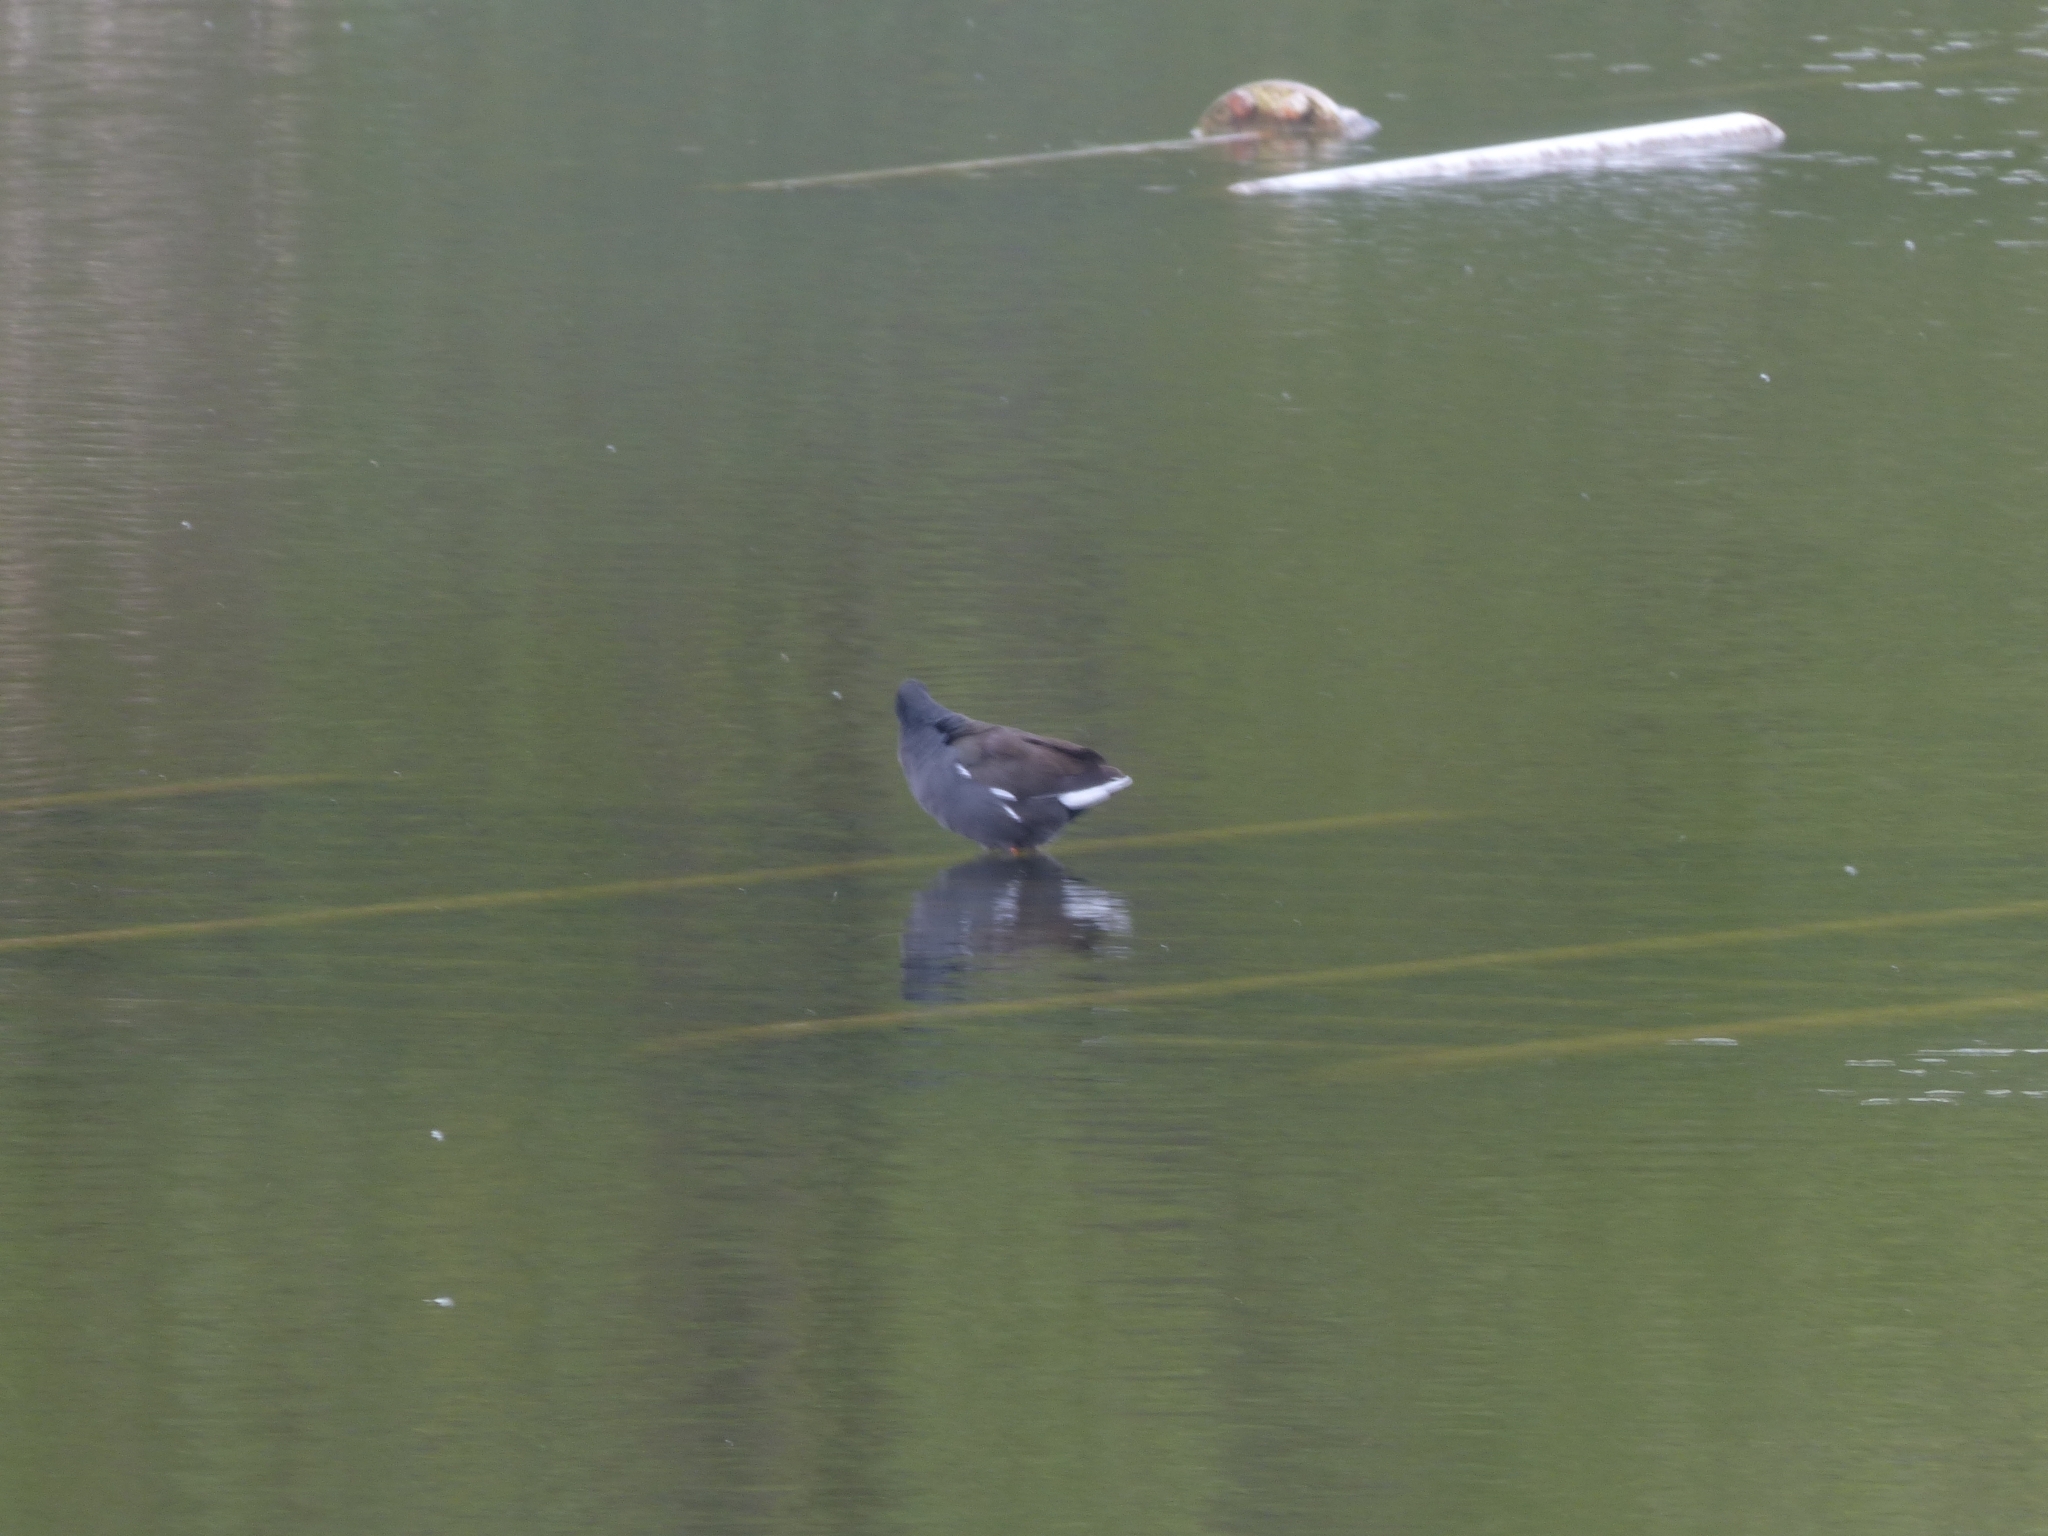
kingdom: Animalia
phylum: Chordata
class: Aves
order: Gruiformes
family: Rallidae
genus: Gallinula
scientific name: Gallinula chloropus
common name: Common moorhen
